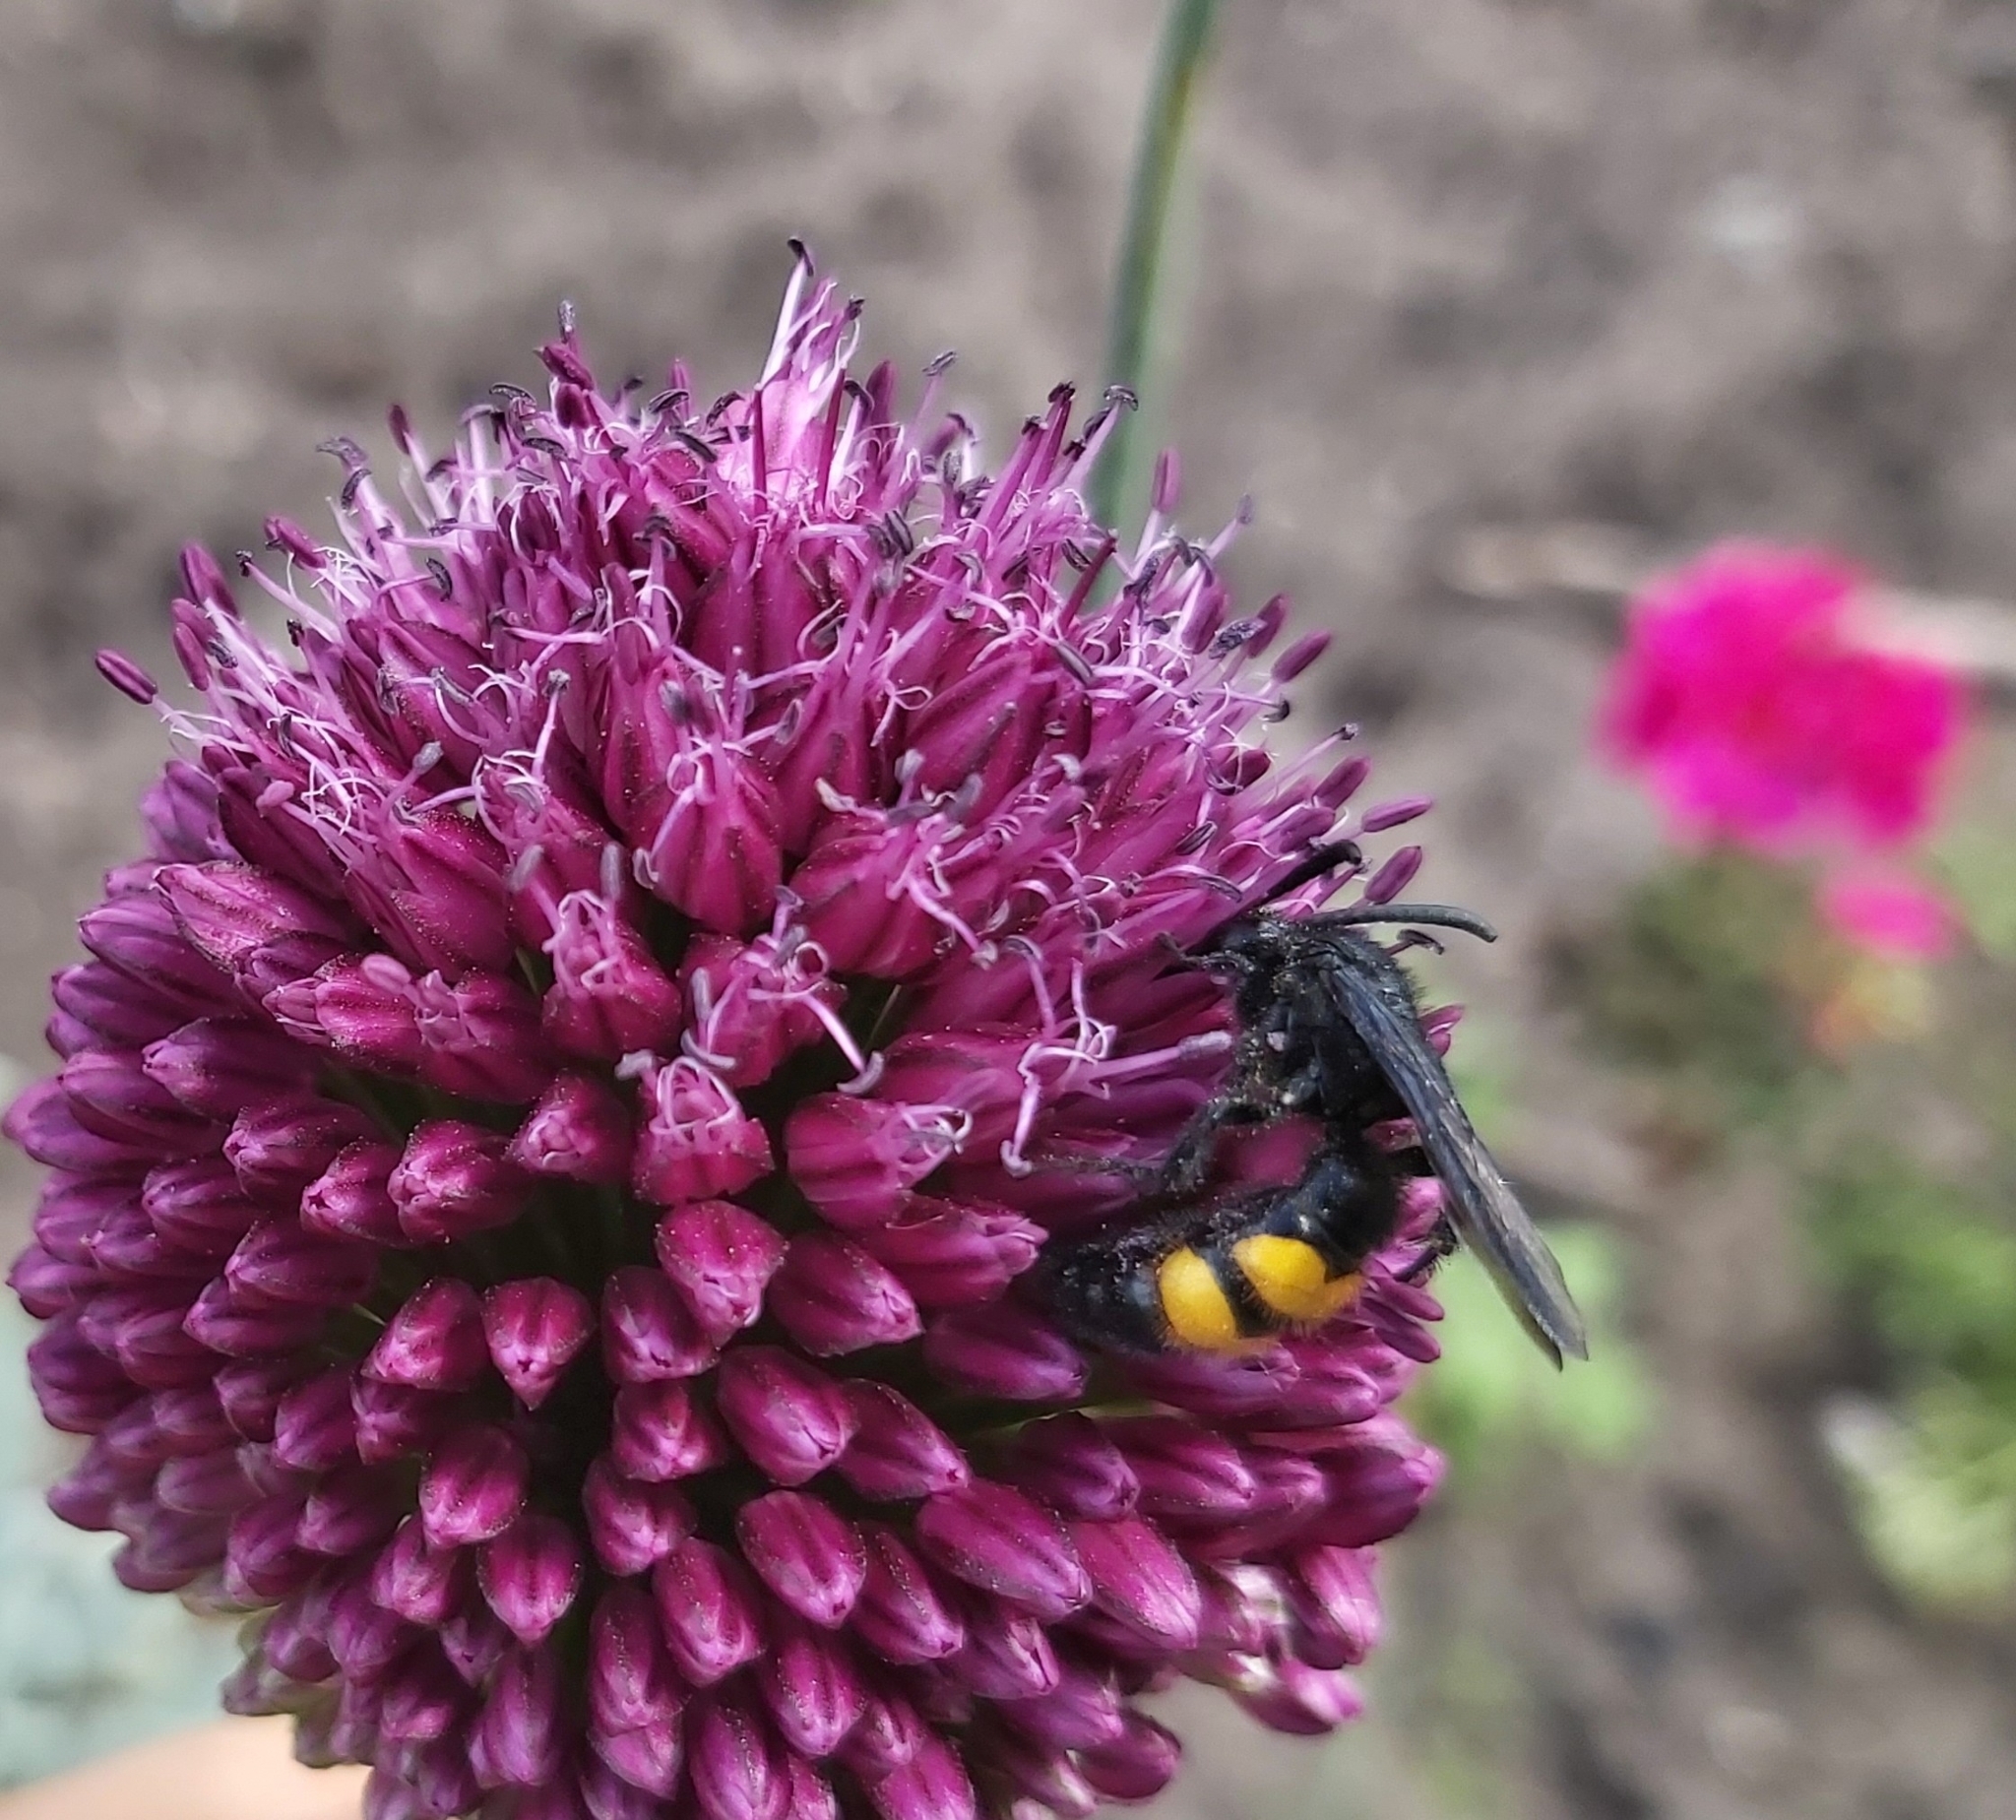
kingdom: Animalia
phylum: Arthropoda
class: Insecta
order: Hymenoptera
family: Scoliidae
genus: Scolia
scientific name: Scolia hirta
